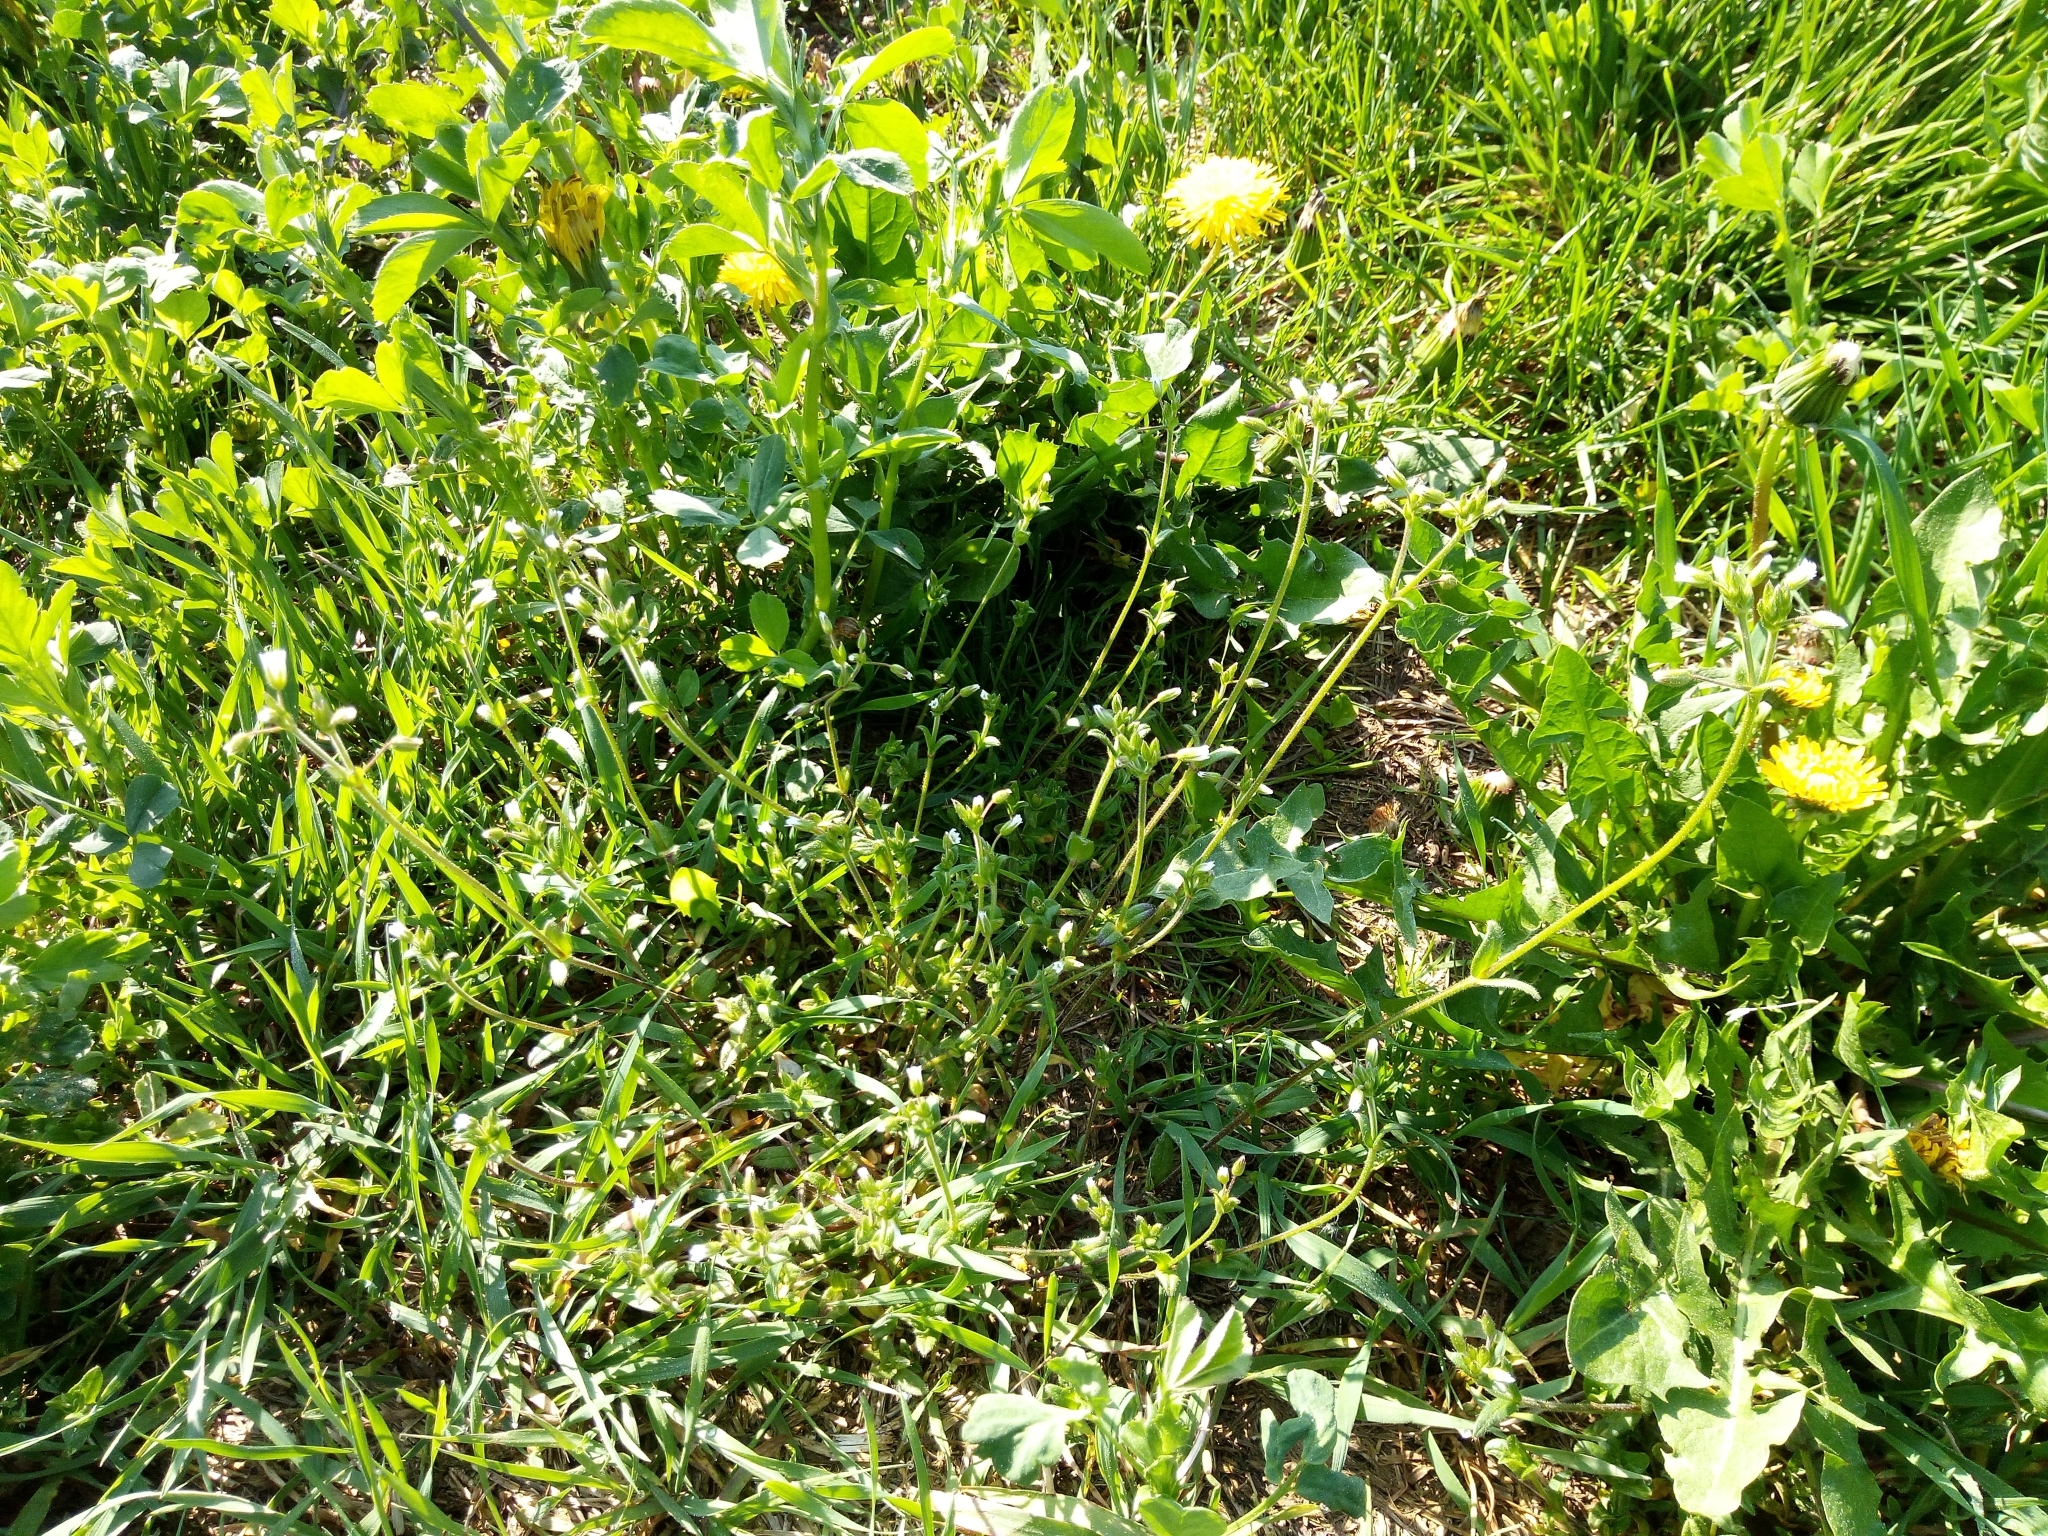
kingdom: Plantae
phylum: Tracheophyta
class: Magnoliopsida
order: Caryophyllales
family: Caryophyllaceae
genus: Cerastium
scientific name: Cerastium holosteoides
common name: Big chickweed
